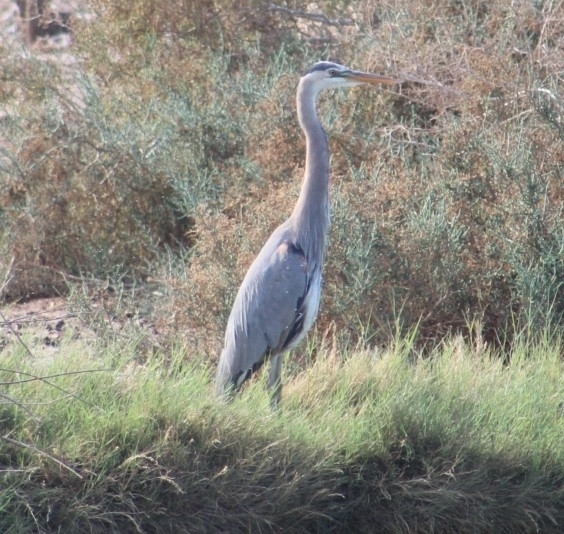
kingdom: Animalia
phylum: Chordata
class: Aves
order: Pelecaniformes
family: Ardeidae
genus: Ardea
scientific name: Ardea herodias
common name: Great blue heron
